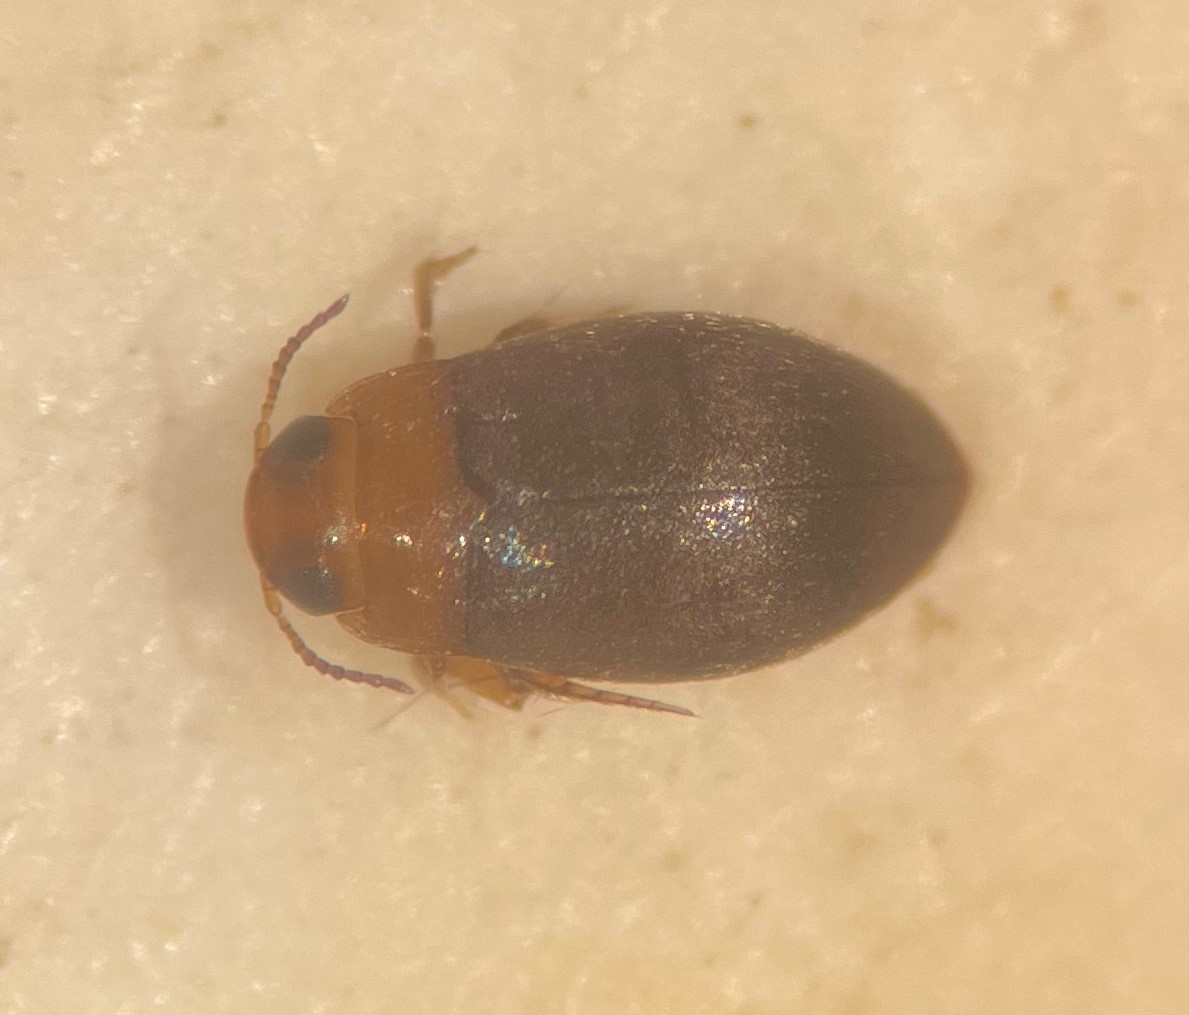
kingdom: Animalia
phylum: Arthropoda
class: Insecta
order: Coleoptera
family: Dytiscidae
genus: Bidessonotus
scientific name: Bidessonotus inconspicuus
